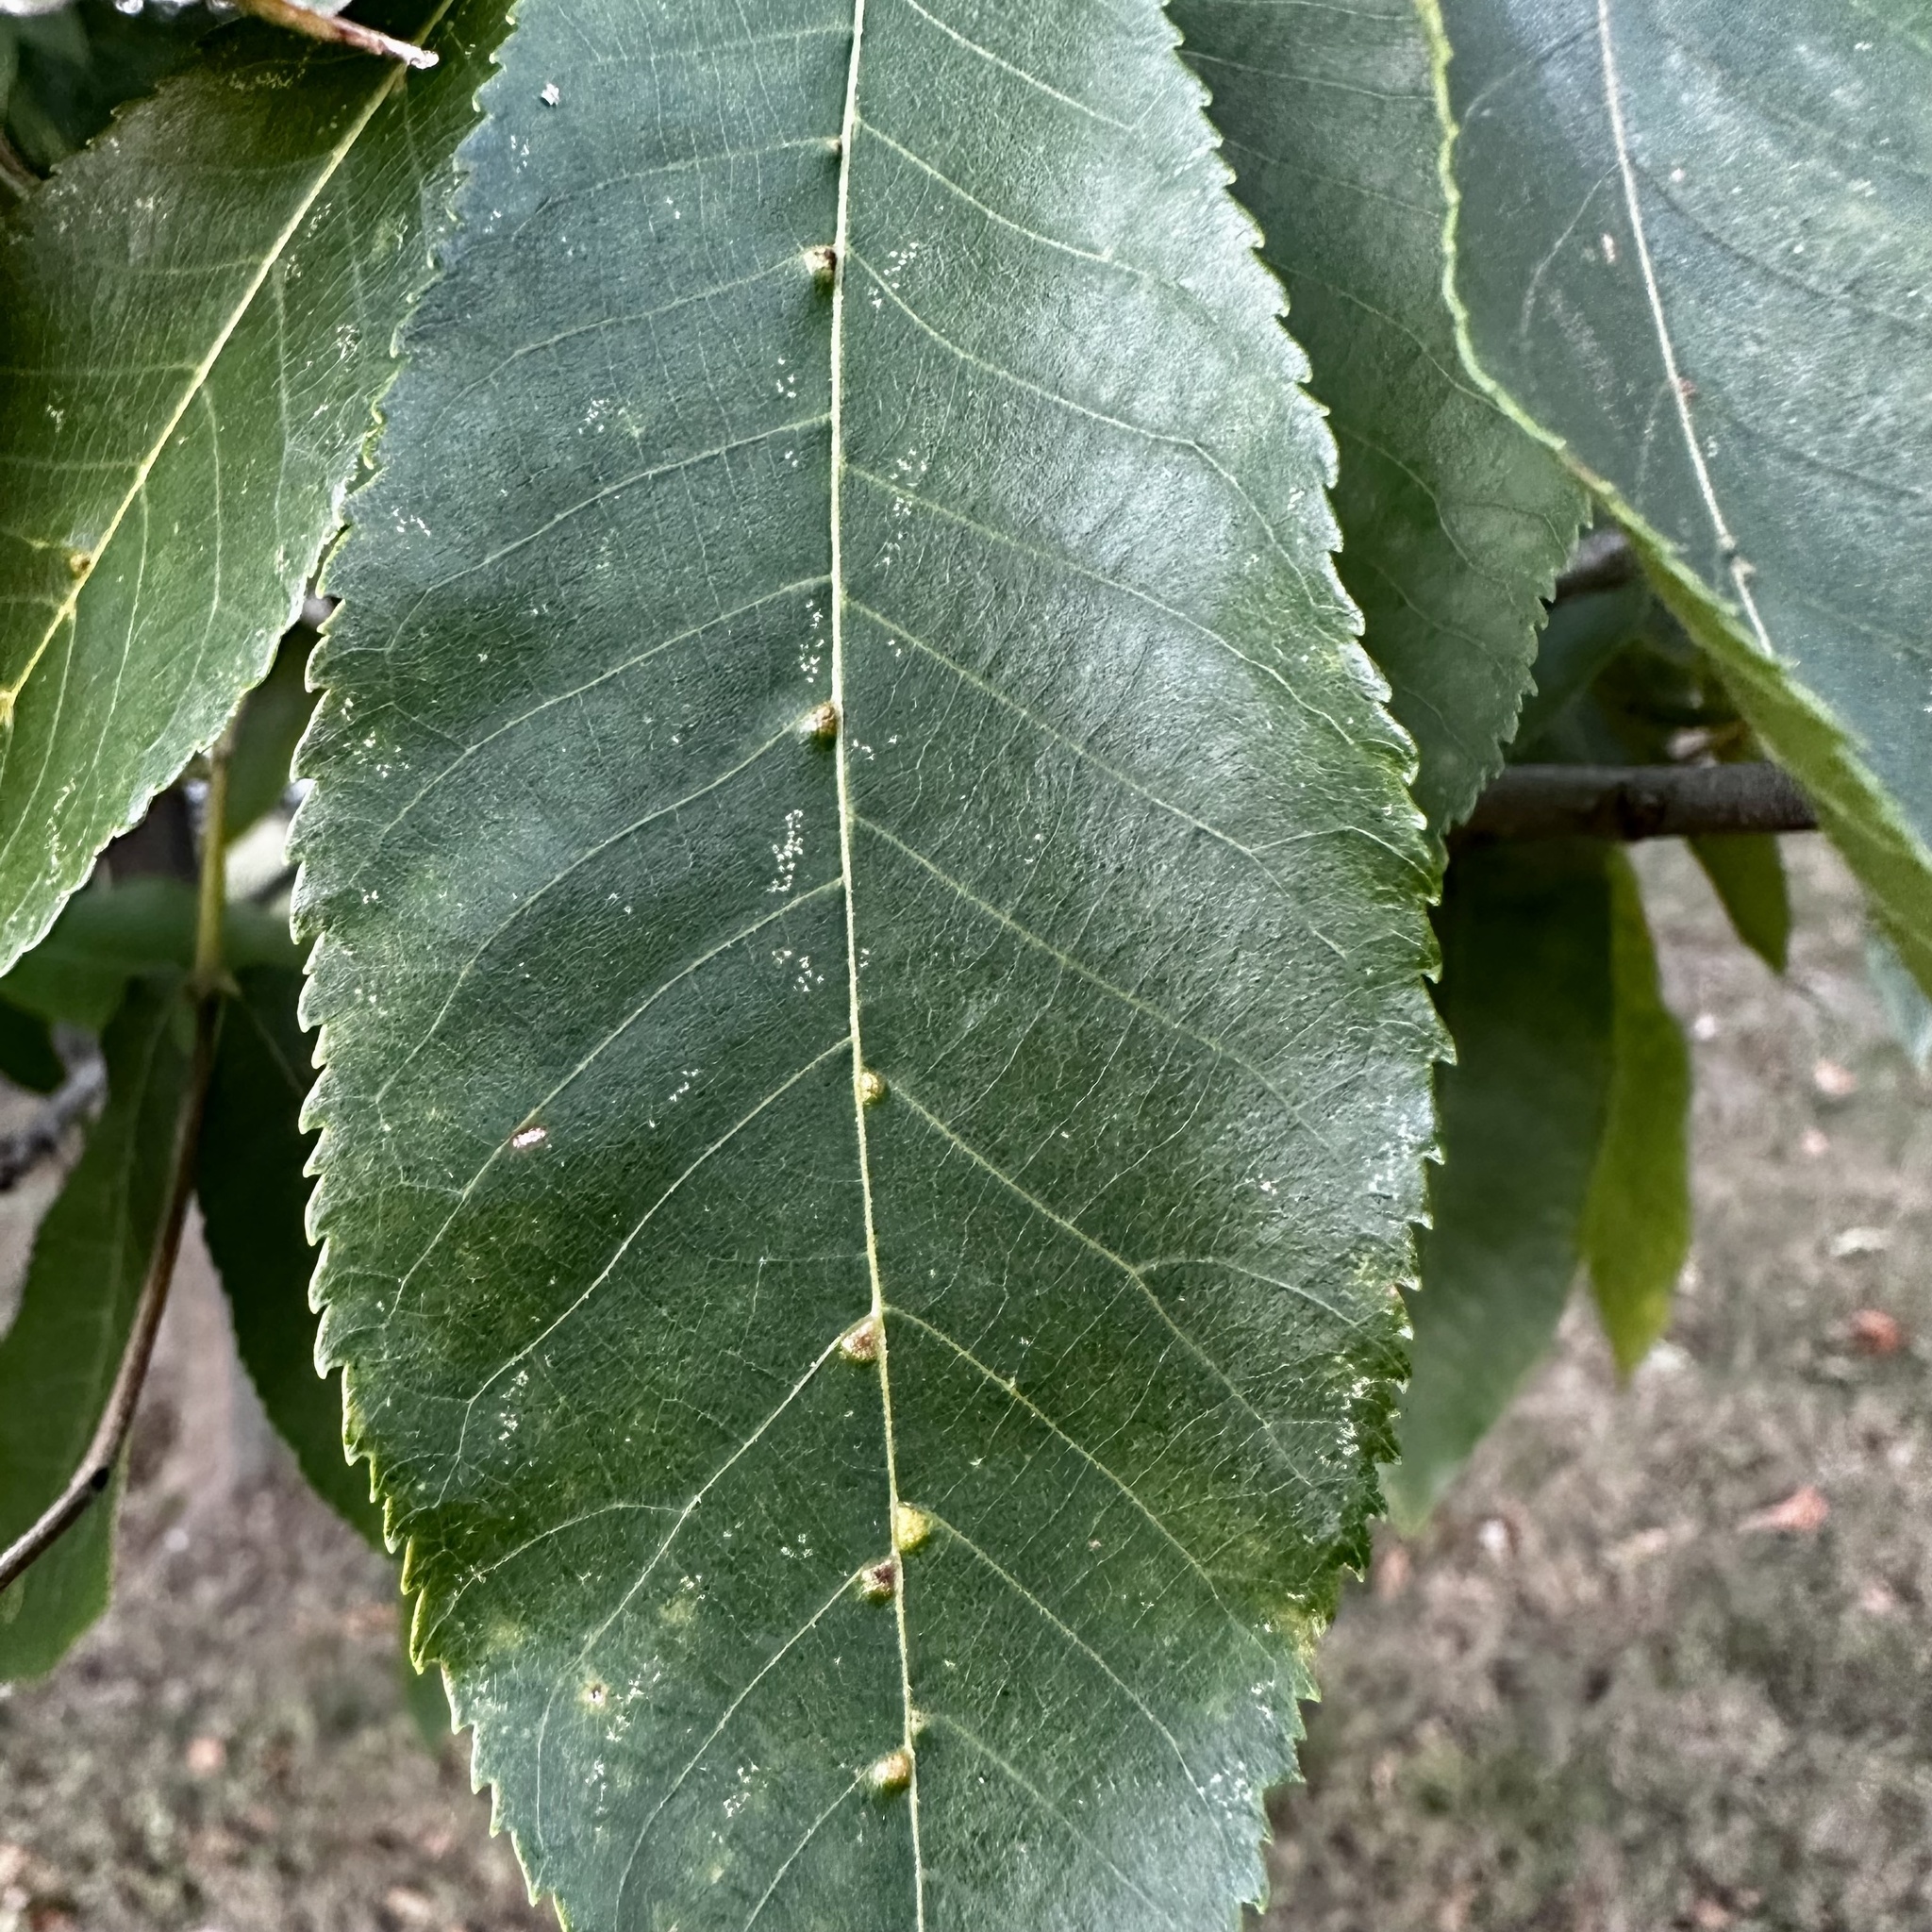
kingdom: Animalia
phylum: Arthropoda
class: Arachnida
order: Trombidiformes
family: Eriophyidae
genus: Aceria
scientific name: Aceria
